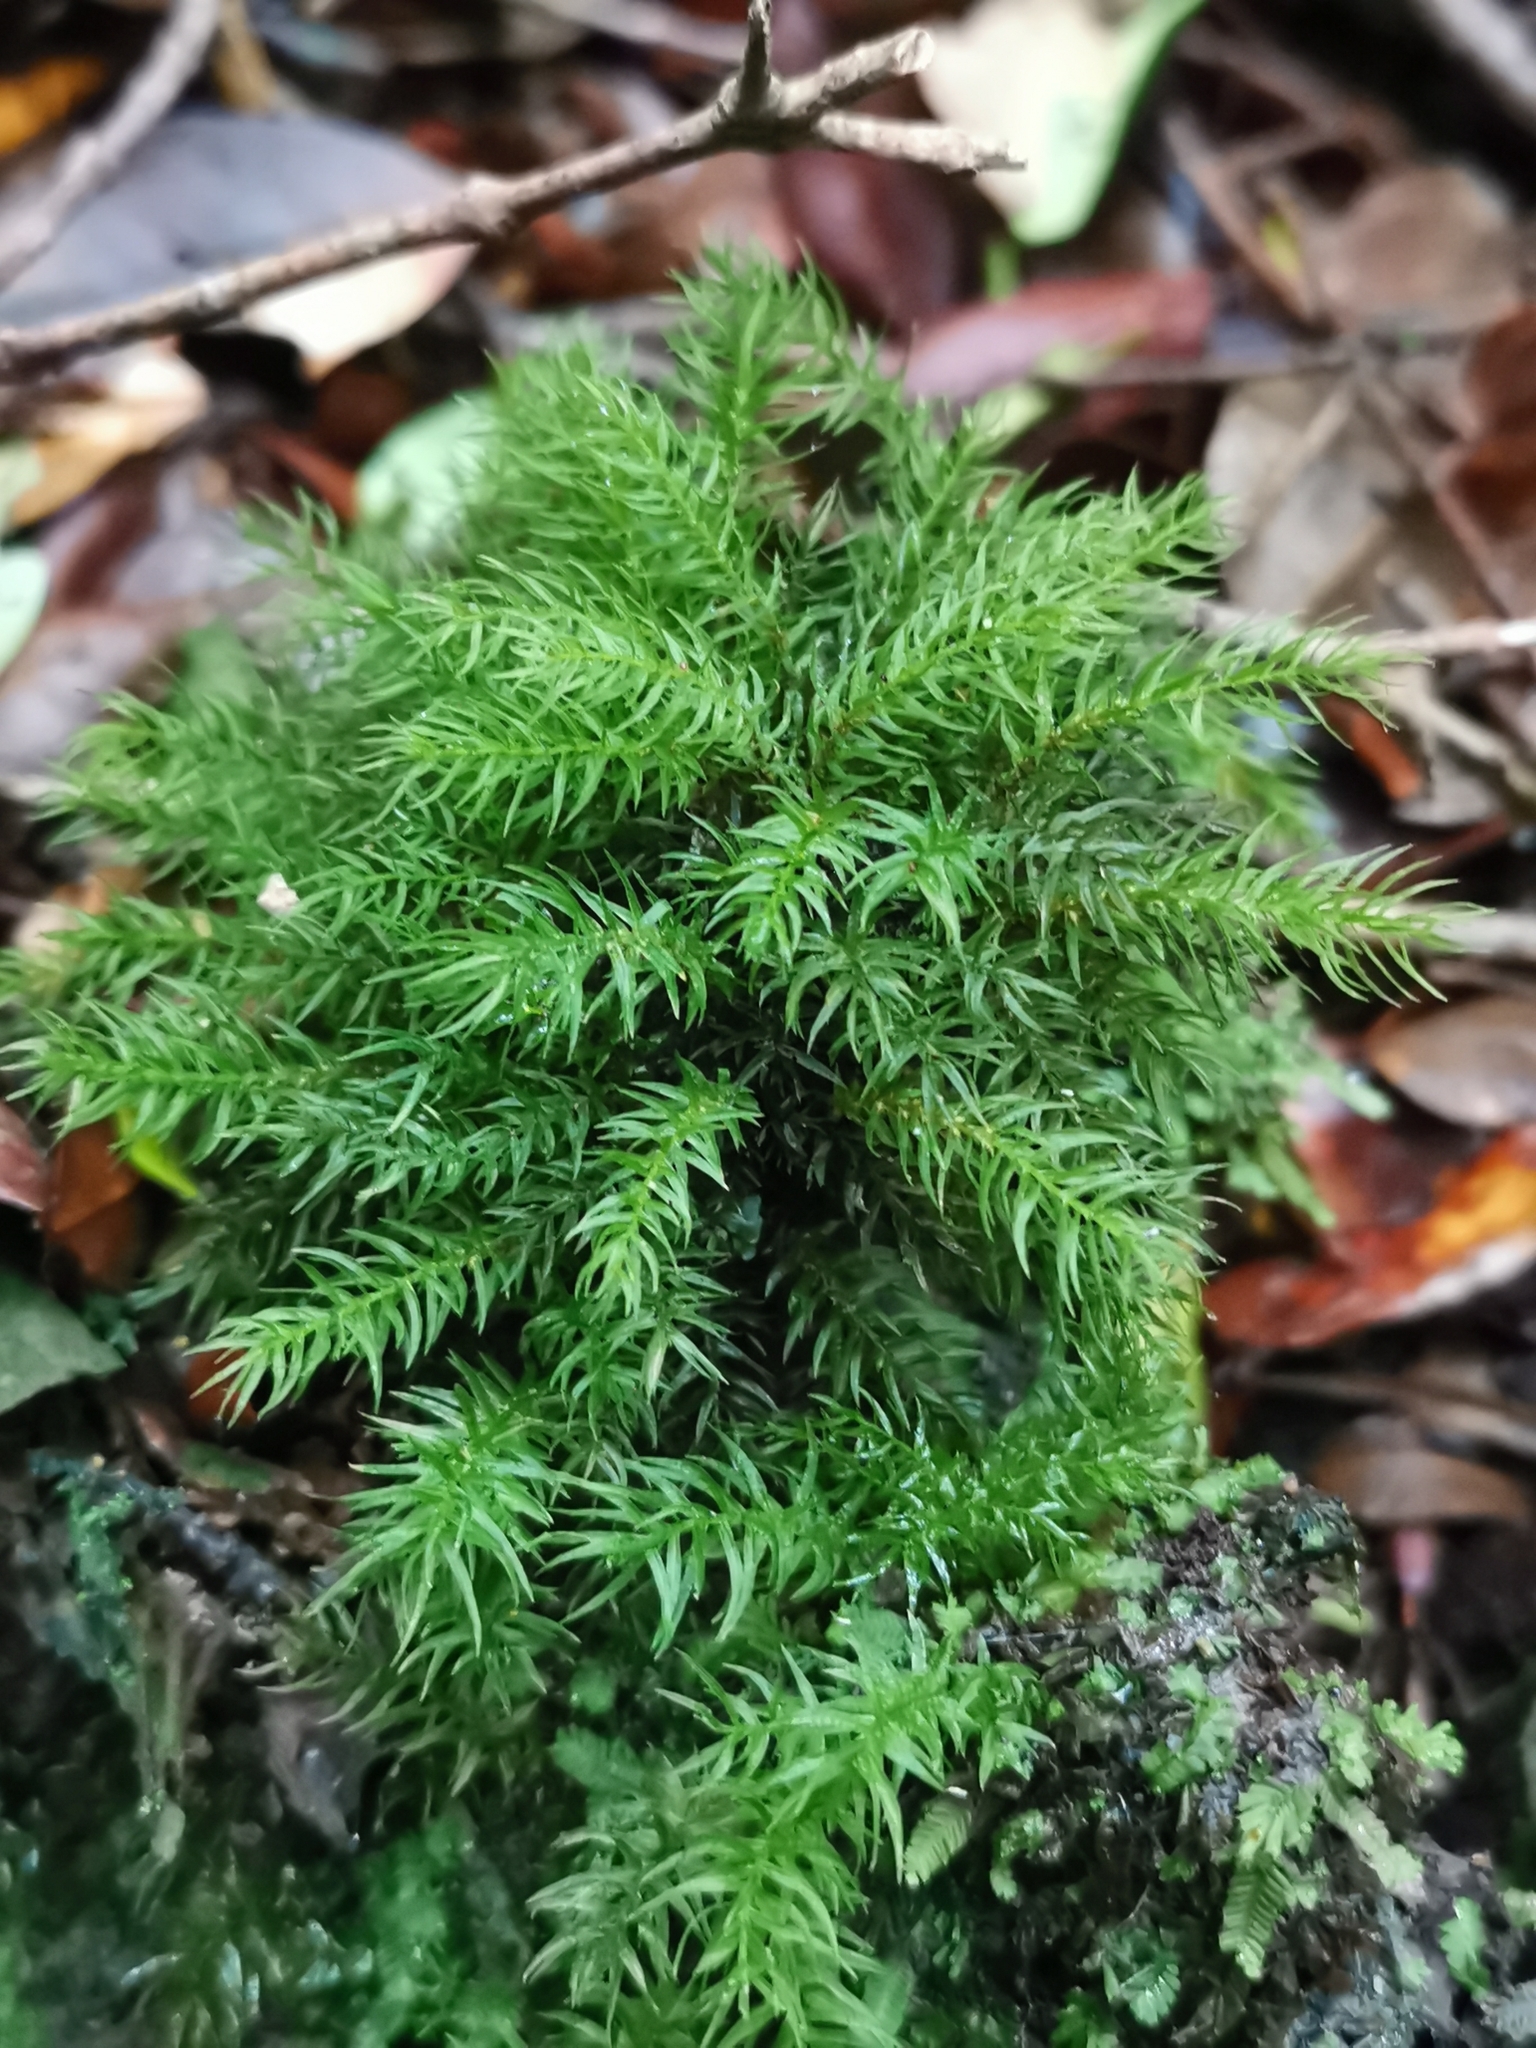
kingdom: Plantae
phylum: Bryophyta
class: Bryopsida
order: Aulacomniales
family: Aulacomniaceae
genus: Hymenodontopsis
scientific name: Hymenodontopsis mnioides
